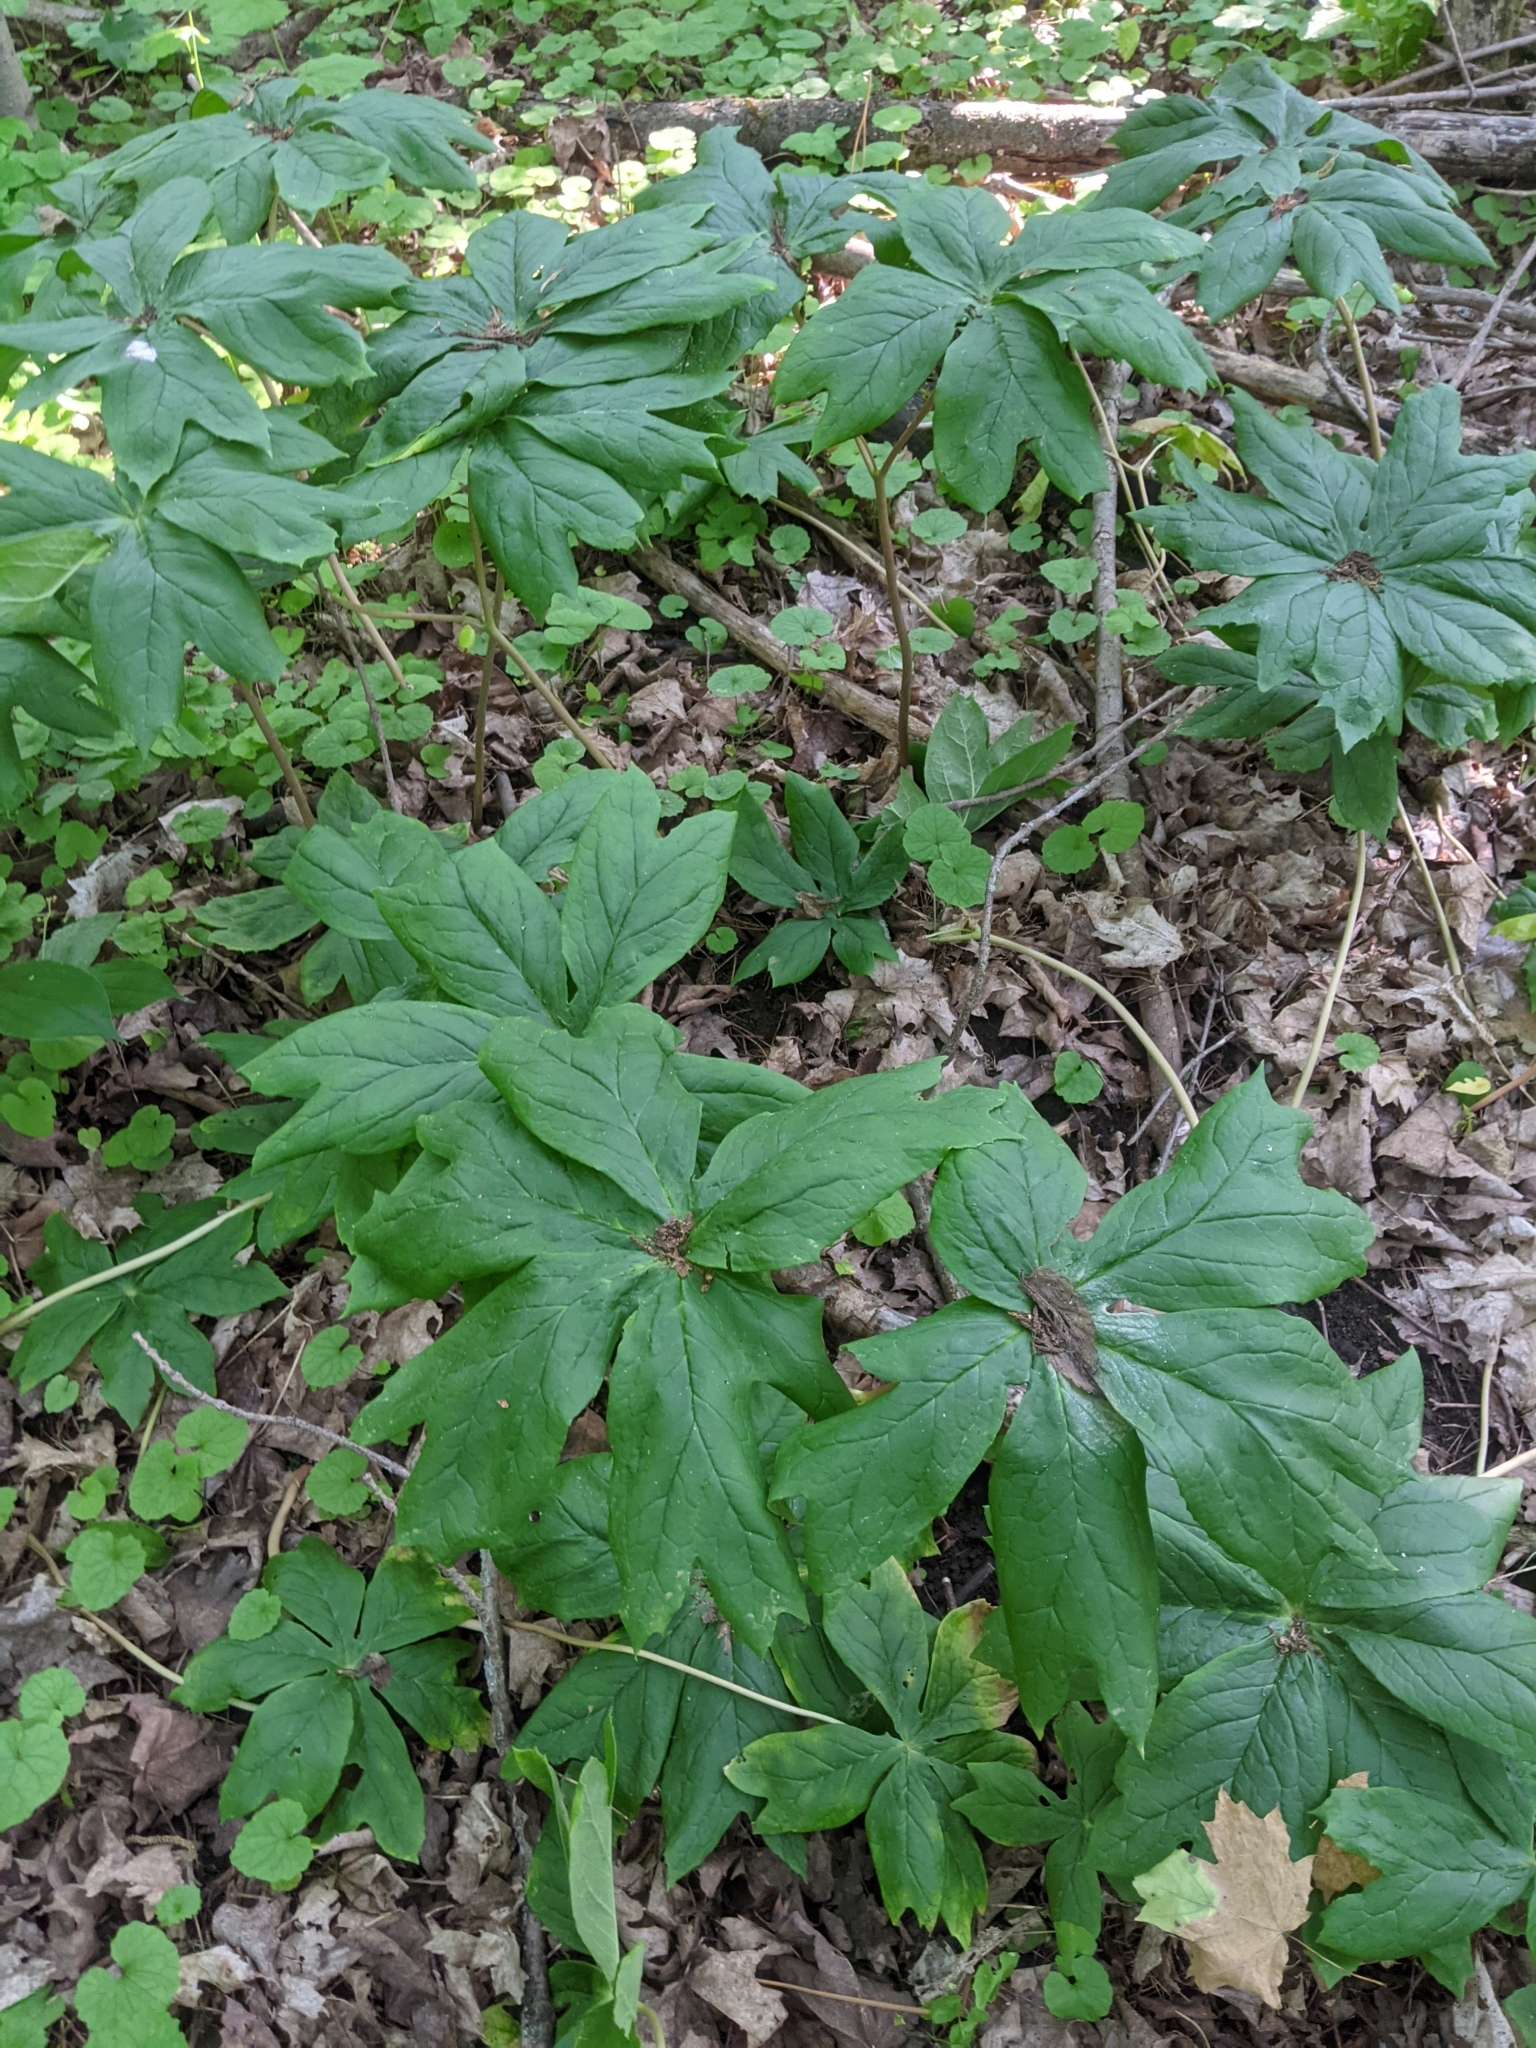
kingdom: Plantae
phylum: Tracheophyta
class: Magnoliopsida
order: Ranunculales
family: Berberidaceae
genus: Podophyllum
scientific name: Podophyllum peltatum
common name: Wild mandrake
